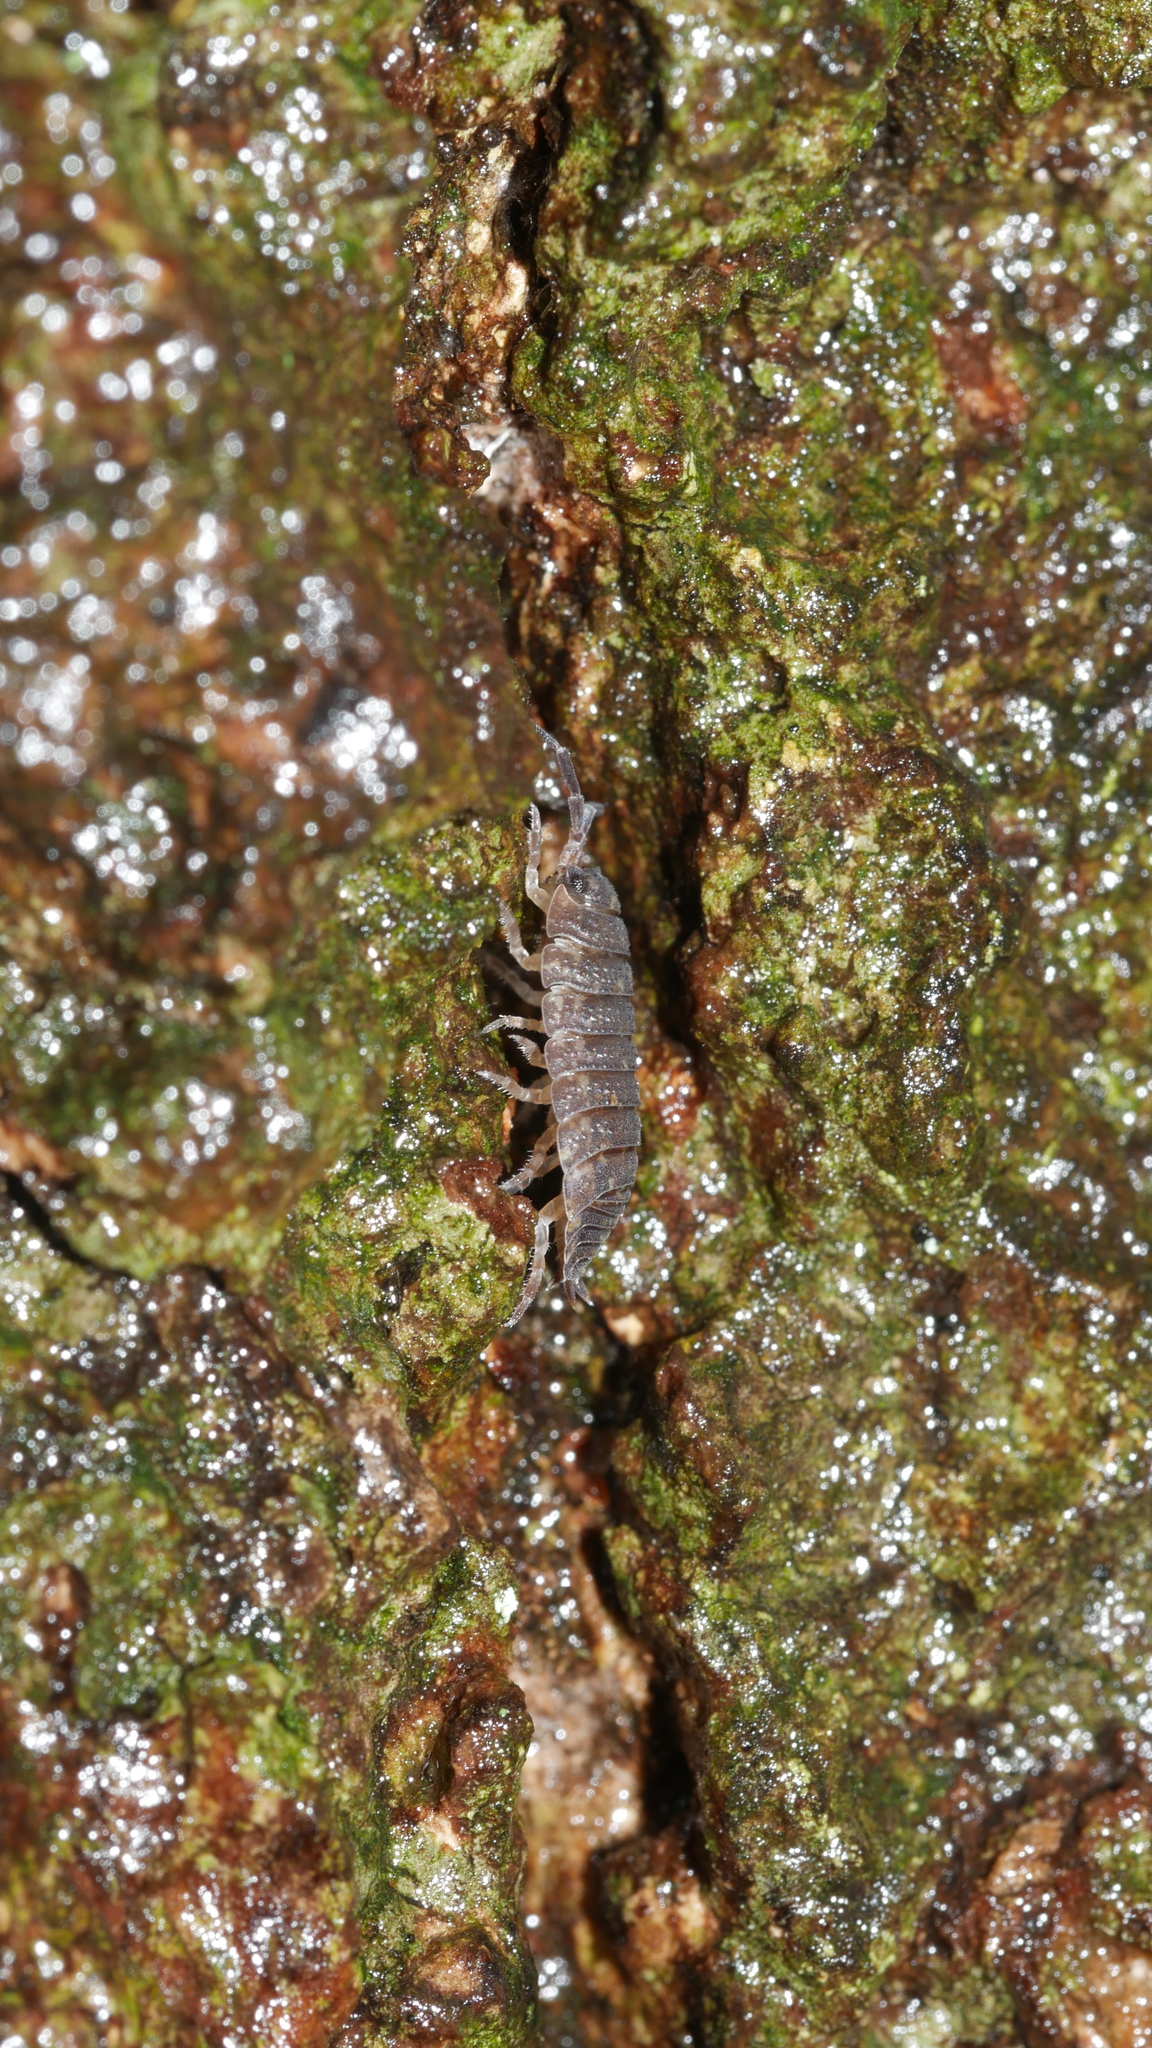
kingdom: Animalia
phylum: Arthropoda
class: Malacostraca
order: Isopoda
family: Porcellionidae
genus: Porcellio
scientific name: Porcellio scaber
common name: Common rough woodlouse
